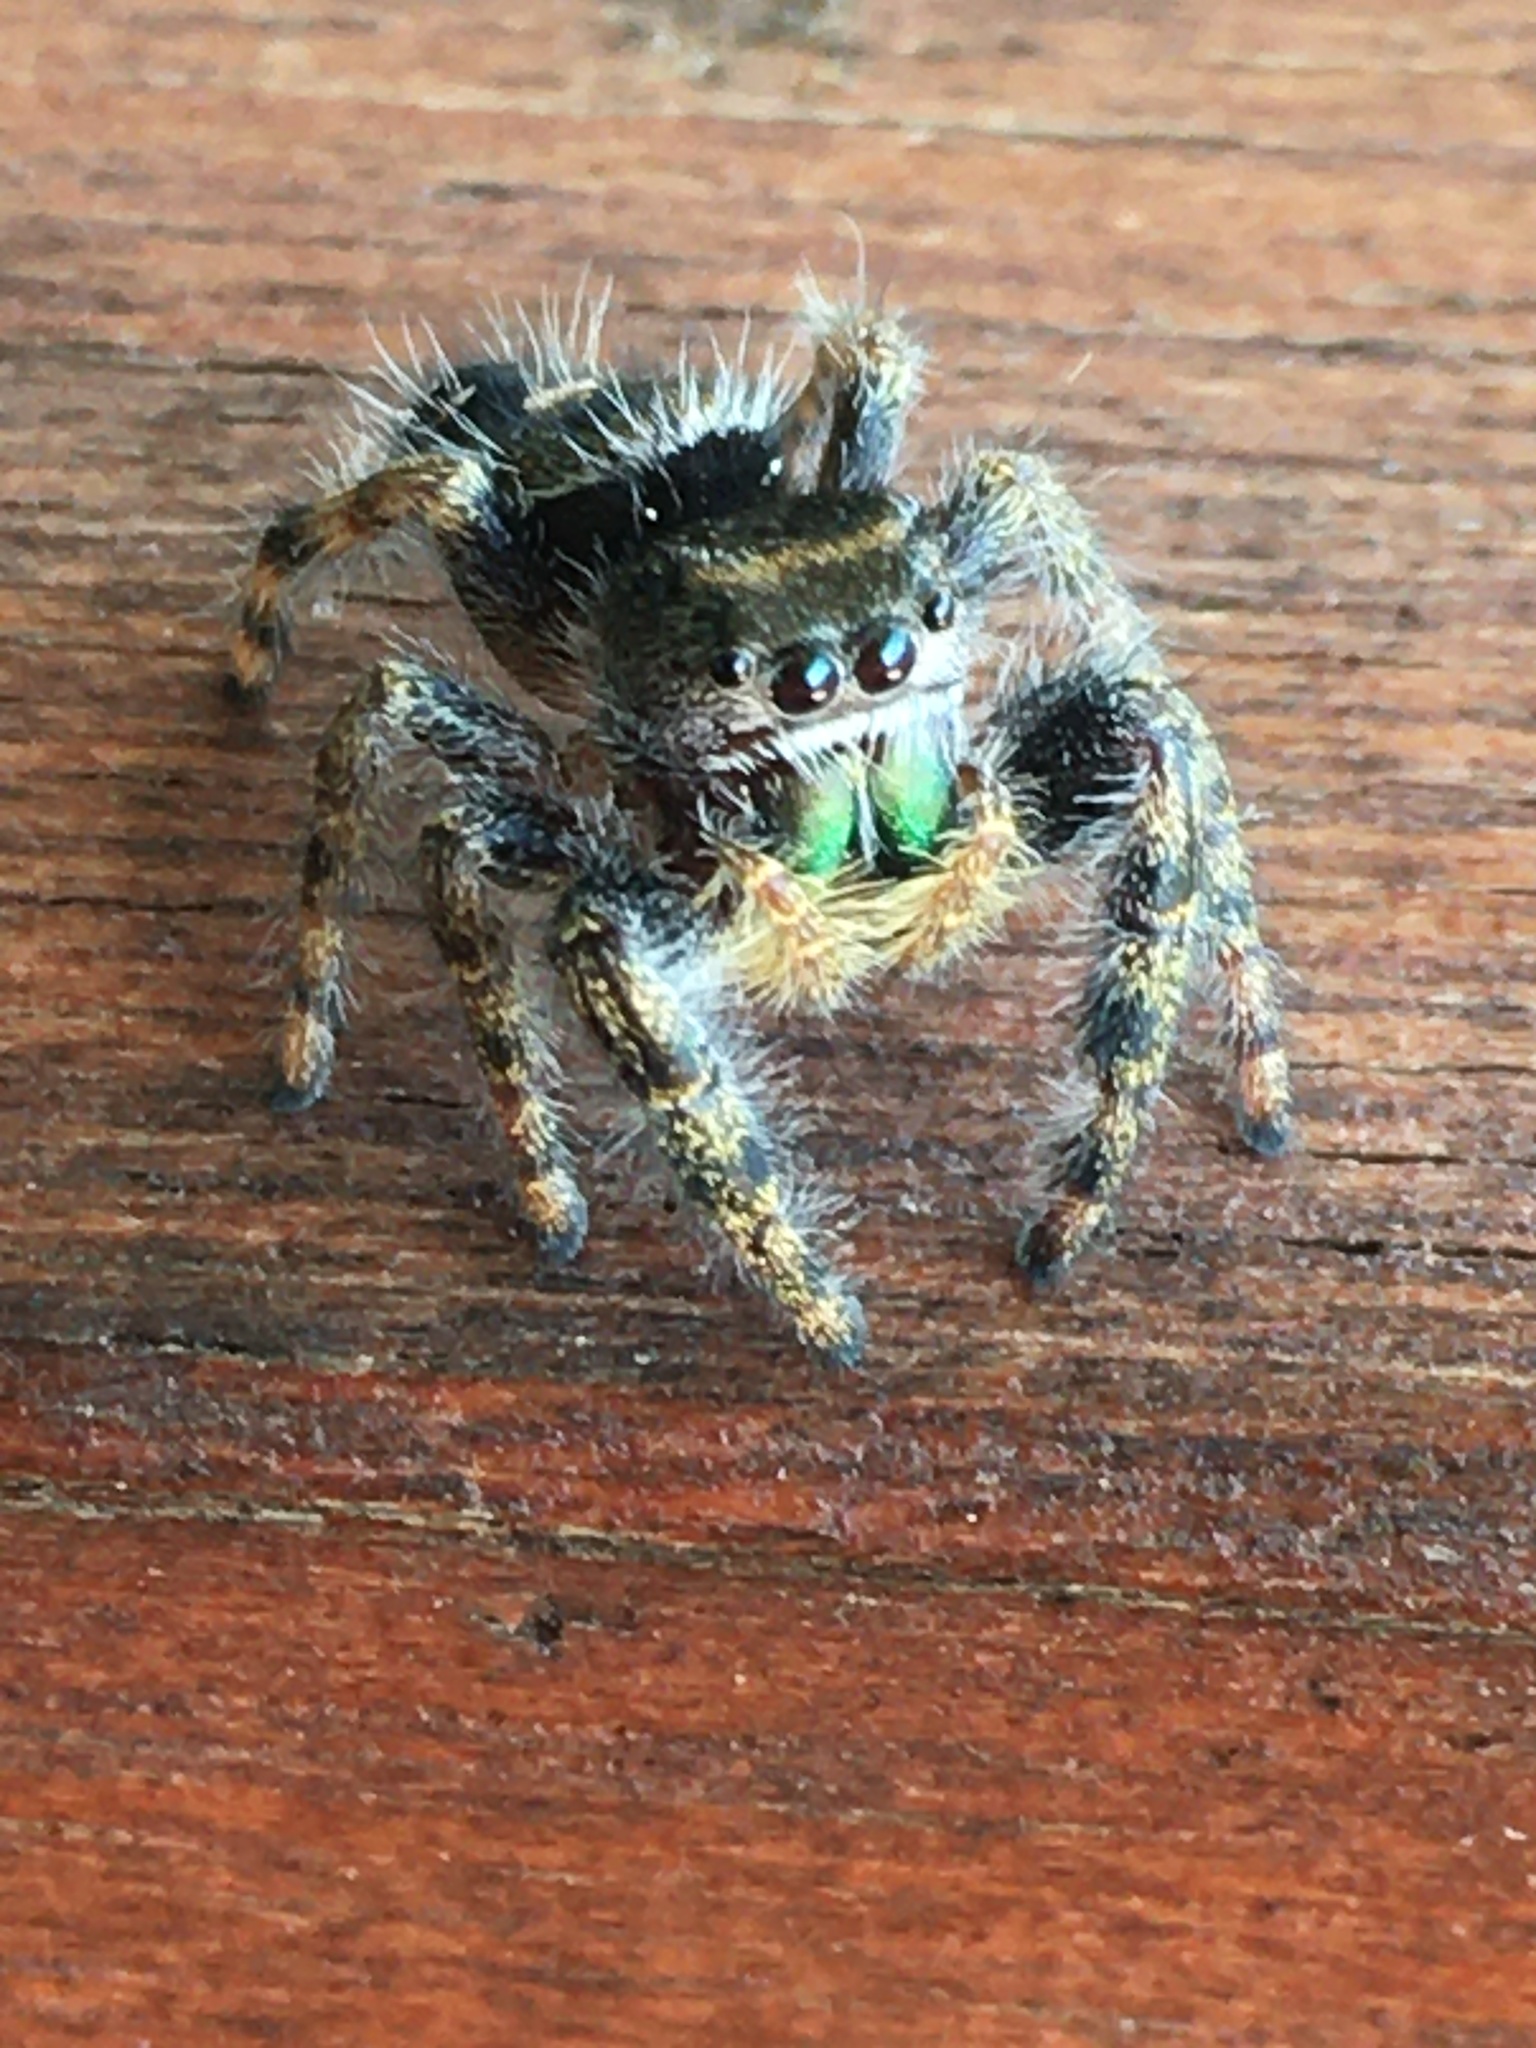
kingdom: Animalia
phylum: Arthropoda
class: Arachnida
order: Araneae
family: Salticidae
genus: Phidippus
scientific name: Phidippus audax
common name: Bold jumper
